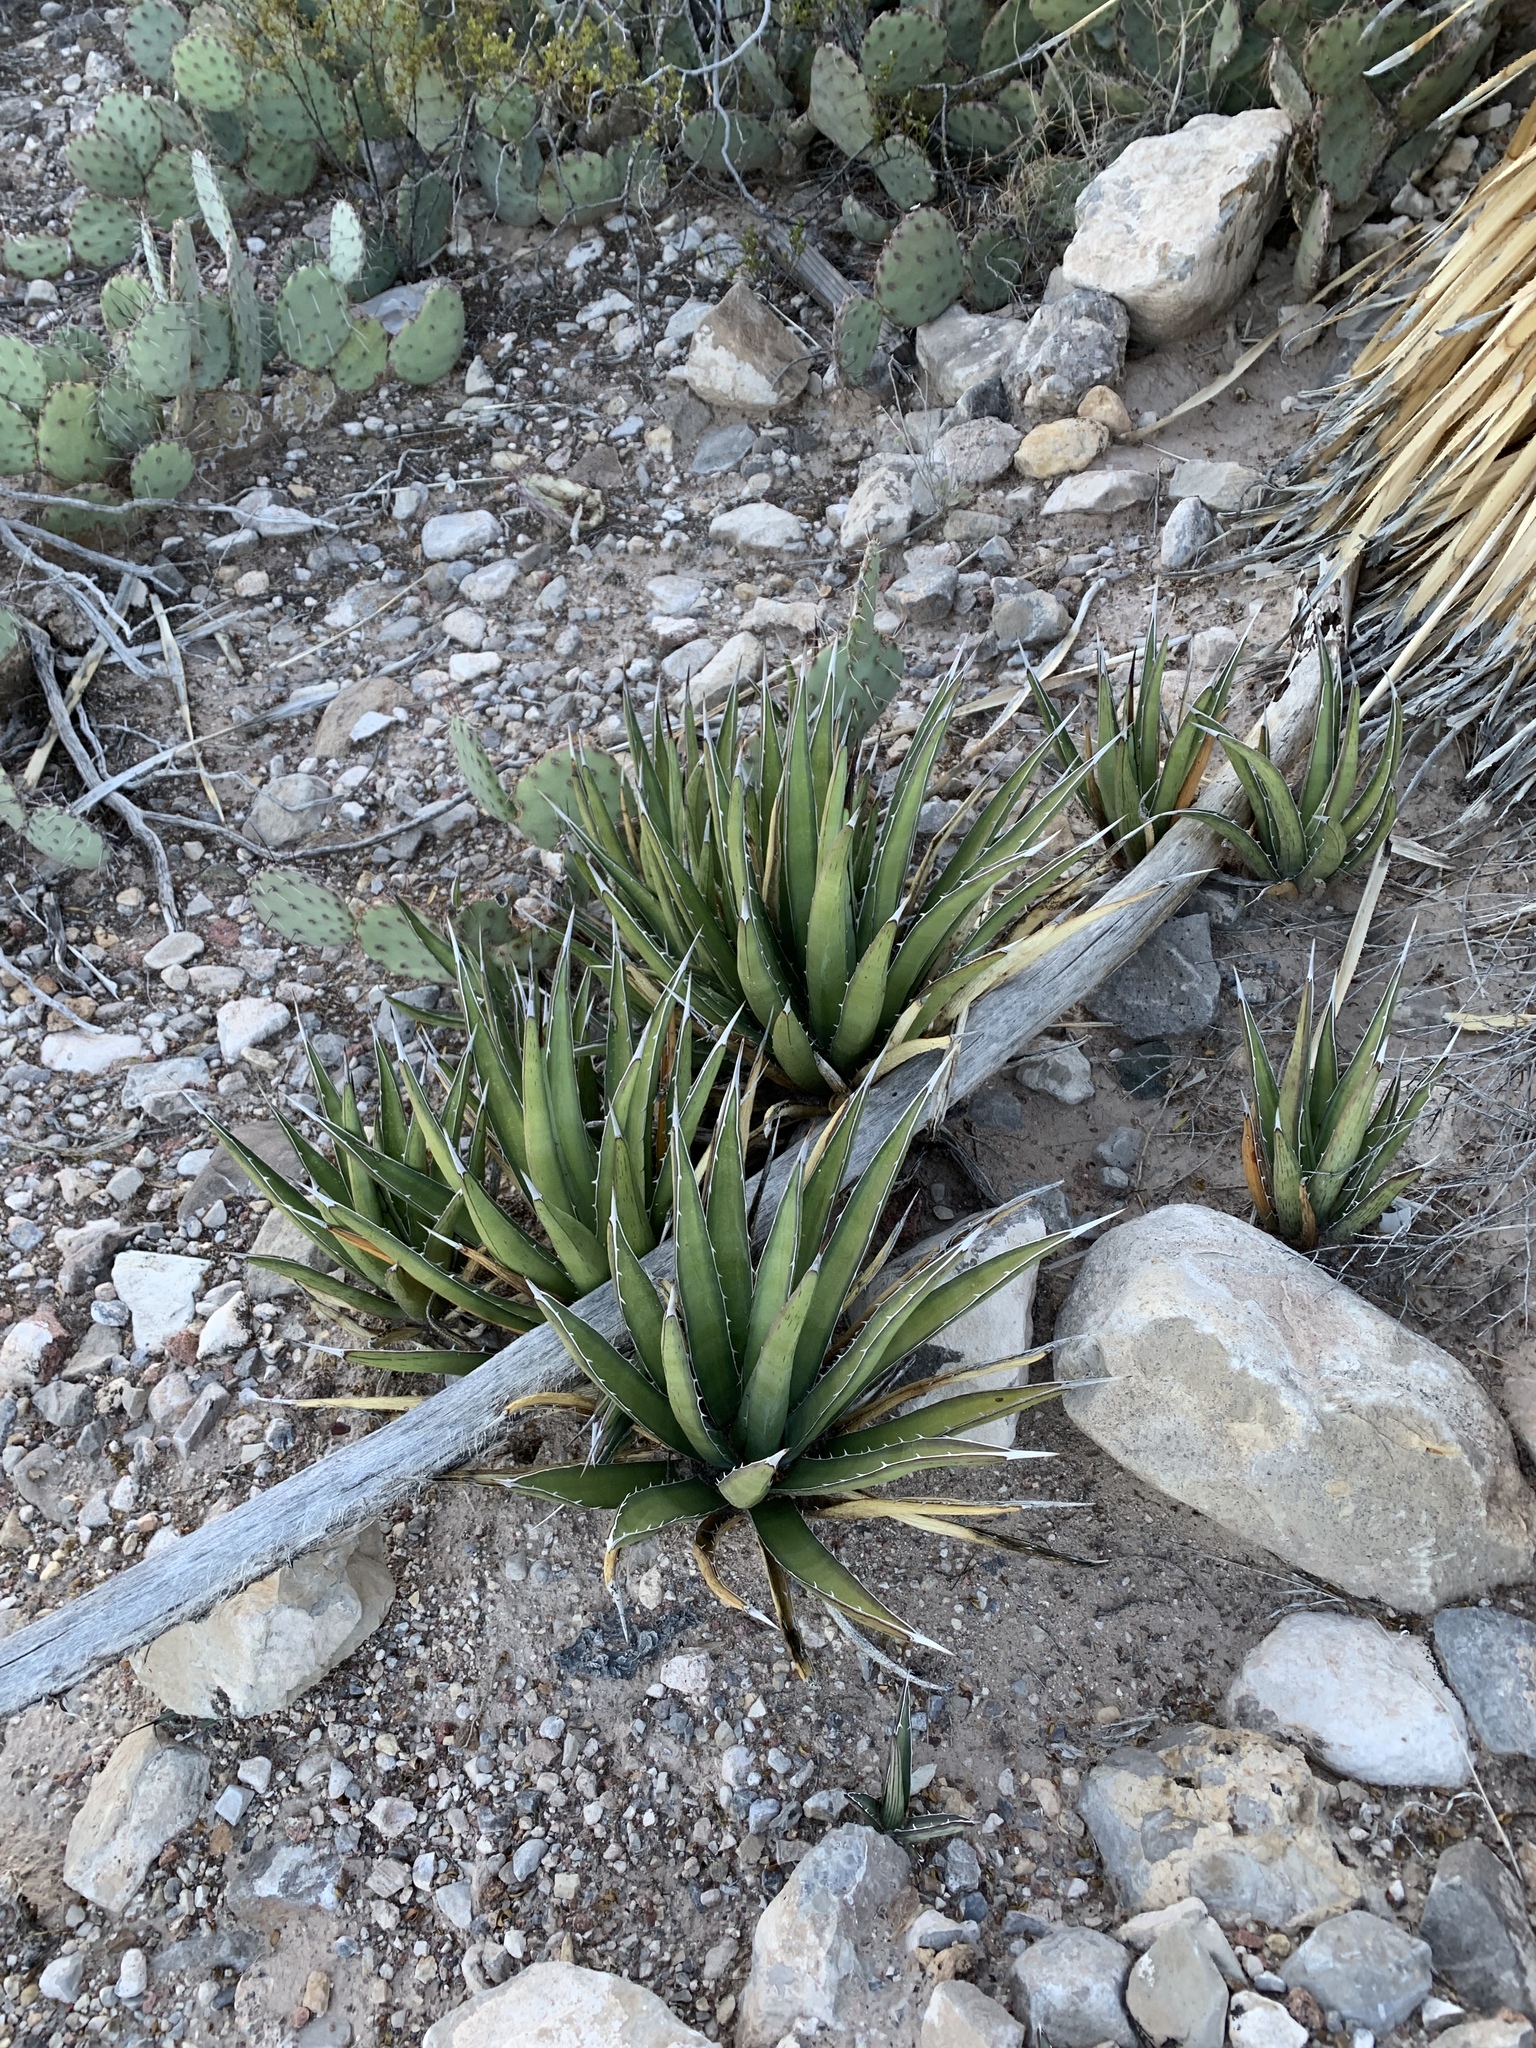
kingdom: Plantae
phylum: Tracheophyta
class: Liliopsida
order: Asparagales
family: Asparagaceae
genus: Agave
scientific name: Agave lechuguilla
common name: Lecheguilla agave
